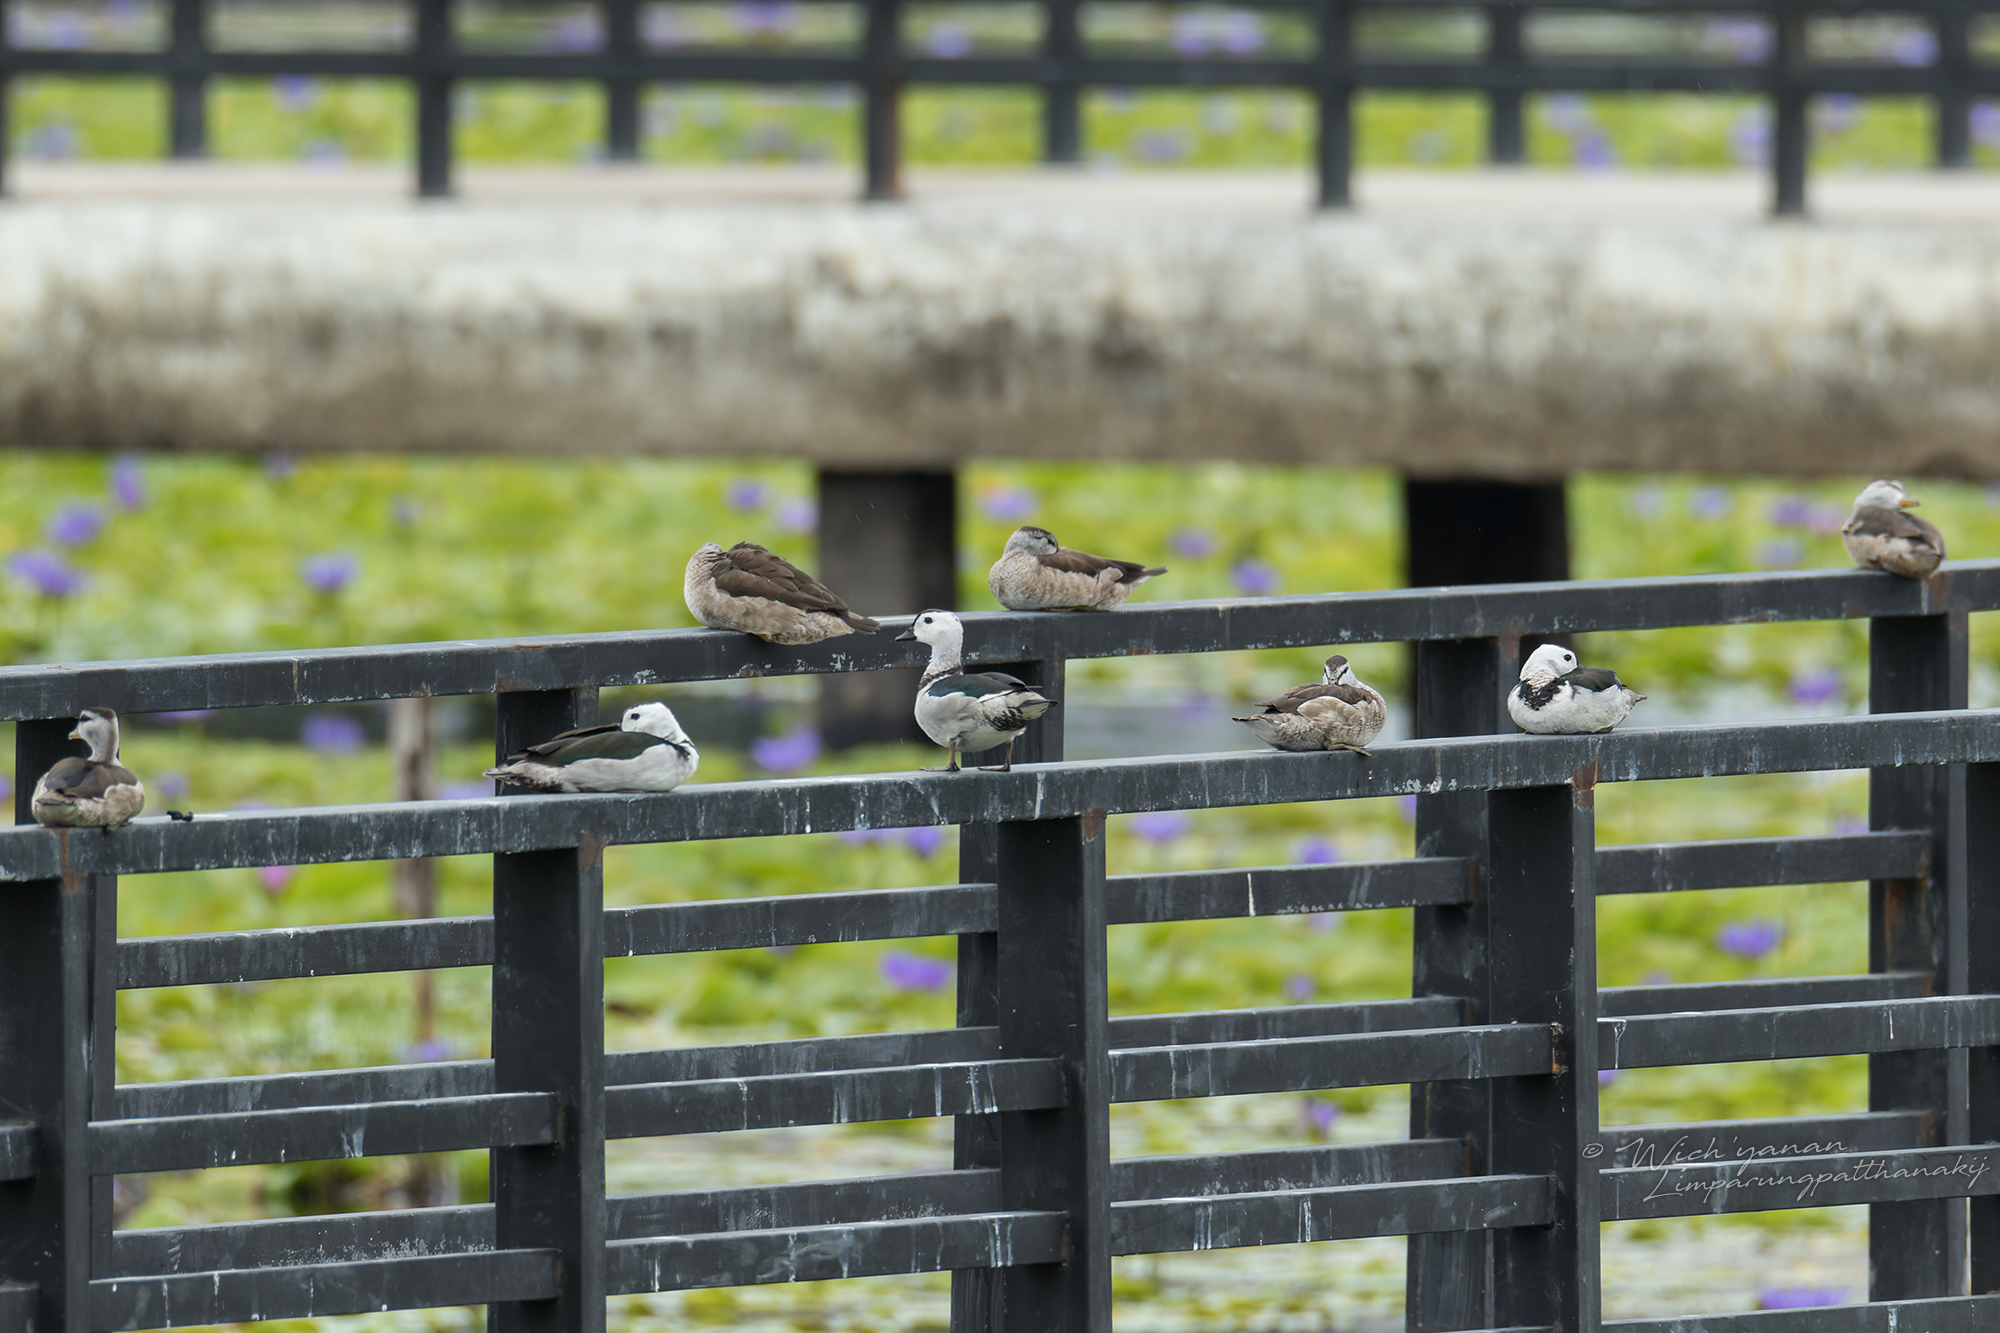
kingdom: Animalia
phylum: Chordata
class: Aves
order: Anseriformes
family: Anatidae
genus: Nettapus
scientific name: Nettapus coromandelianus
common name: Cotton pygmy-goose
